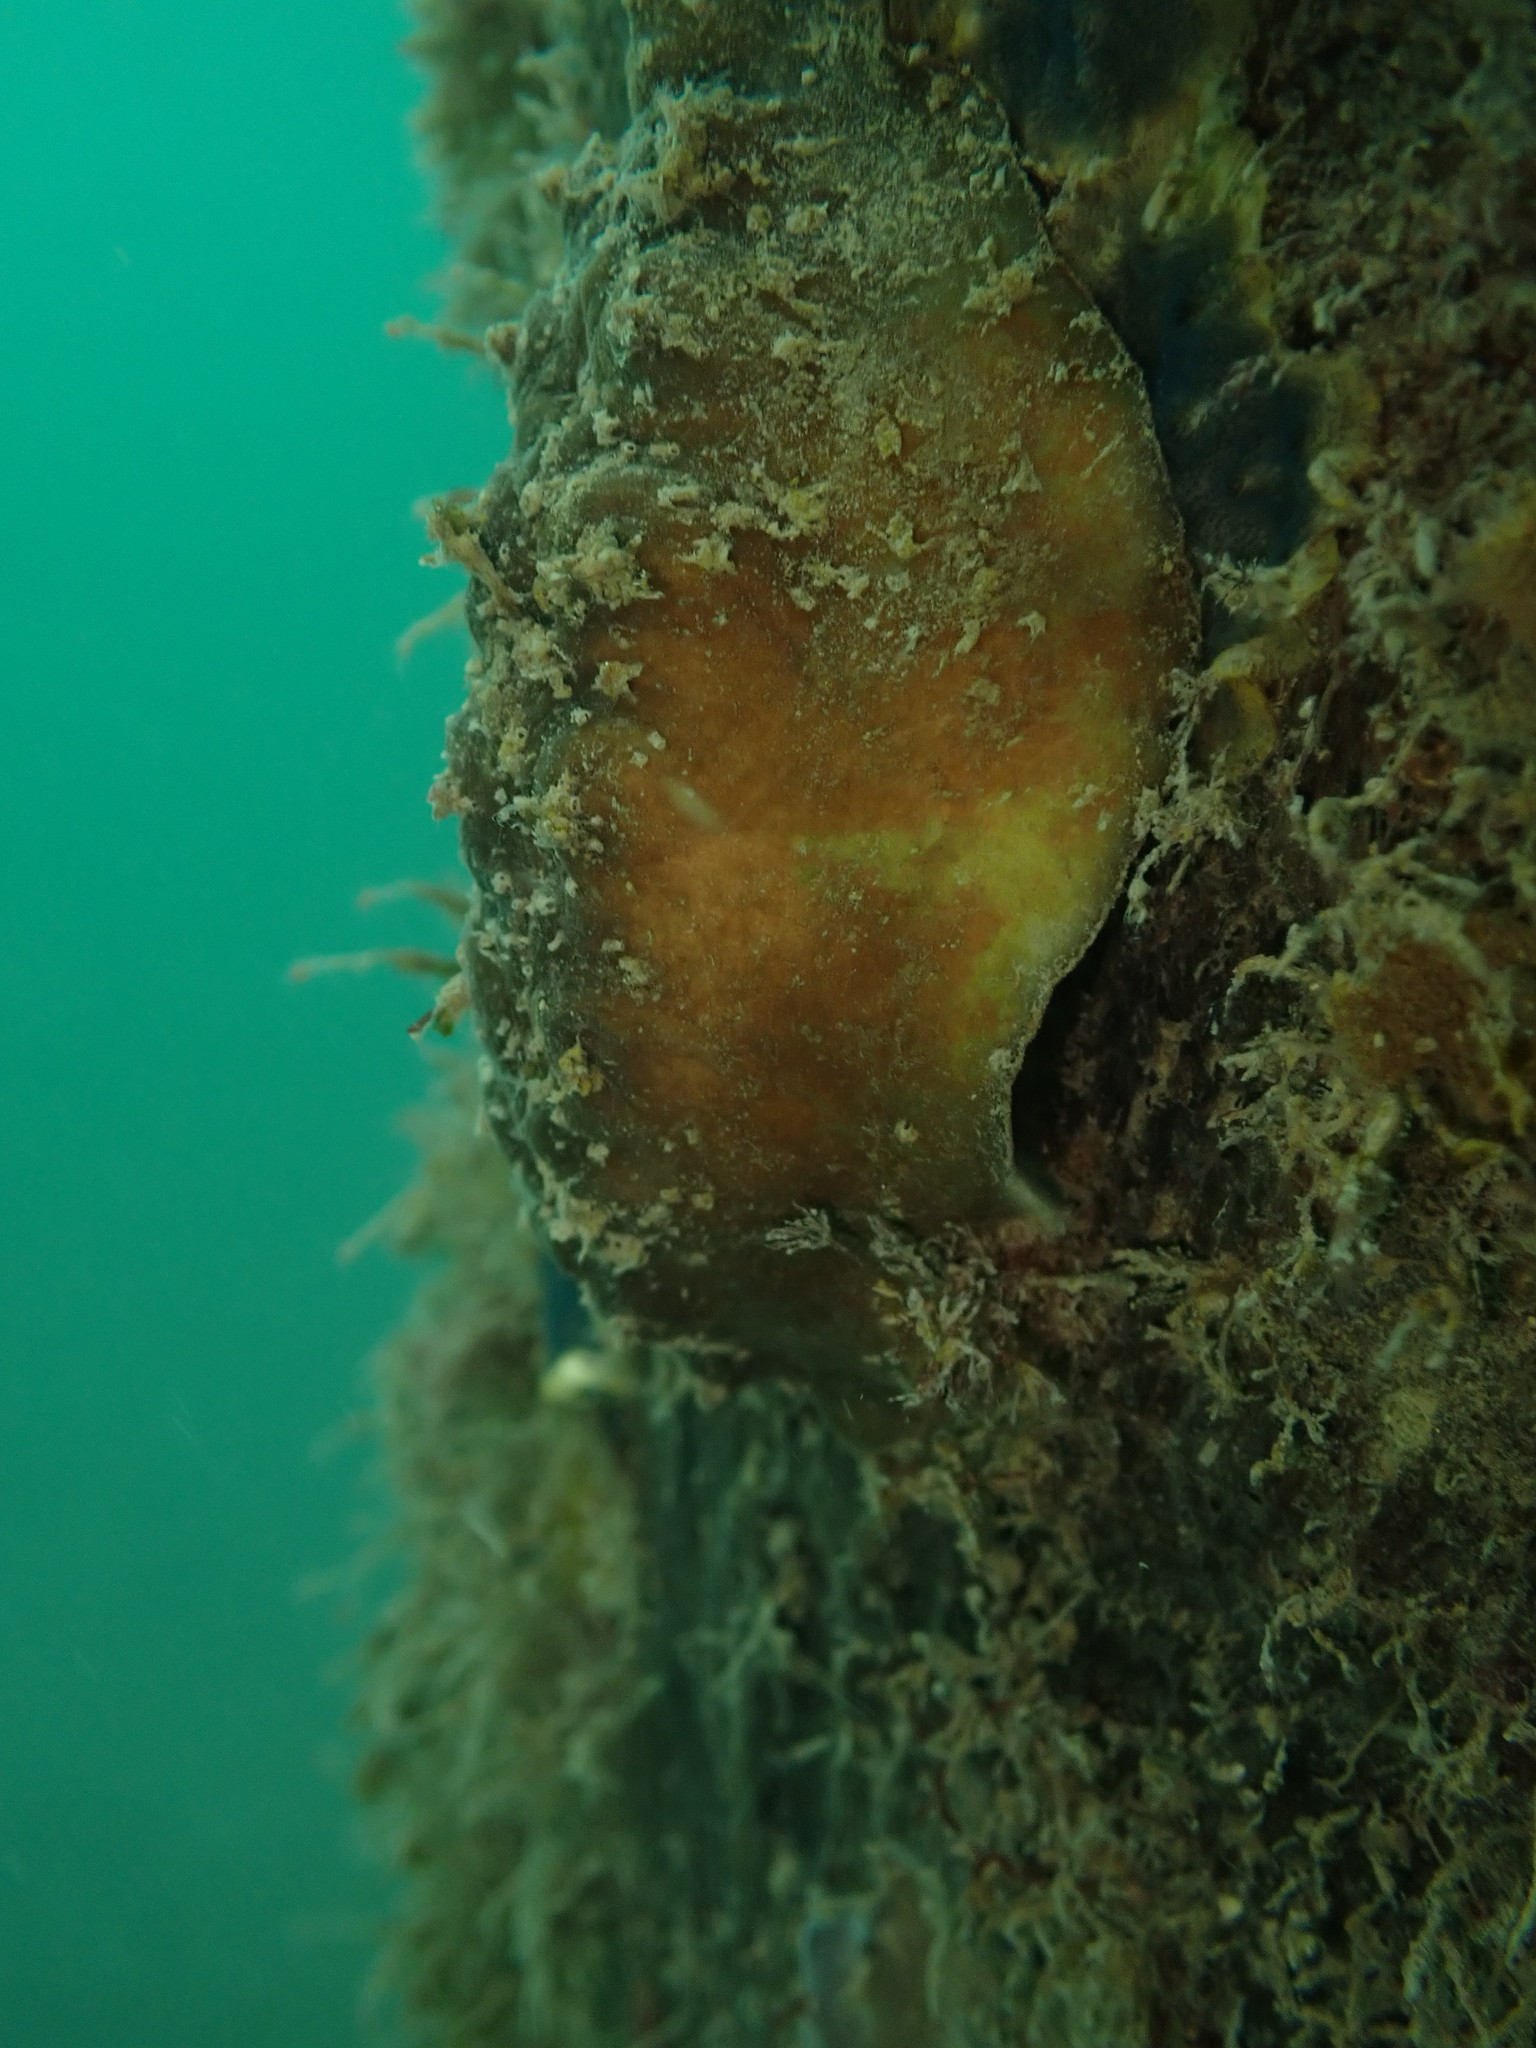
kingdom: Animalia
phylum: Mollusca
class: Polyplacophora
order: Chitonida
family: Acanthochitonidae
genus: Cryptoconchus
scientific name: Cryptoconchus porosus
